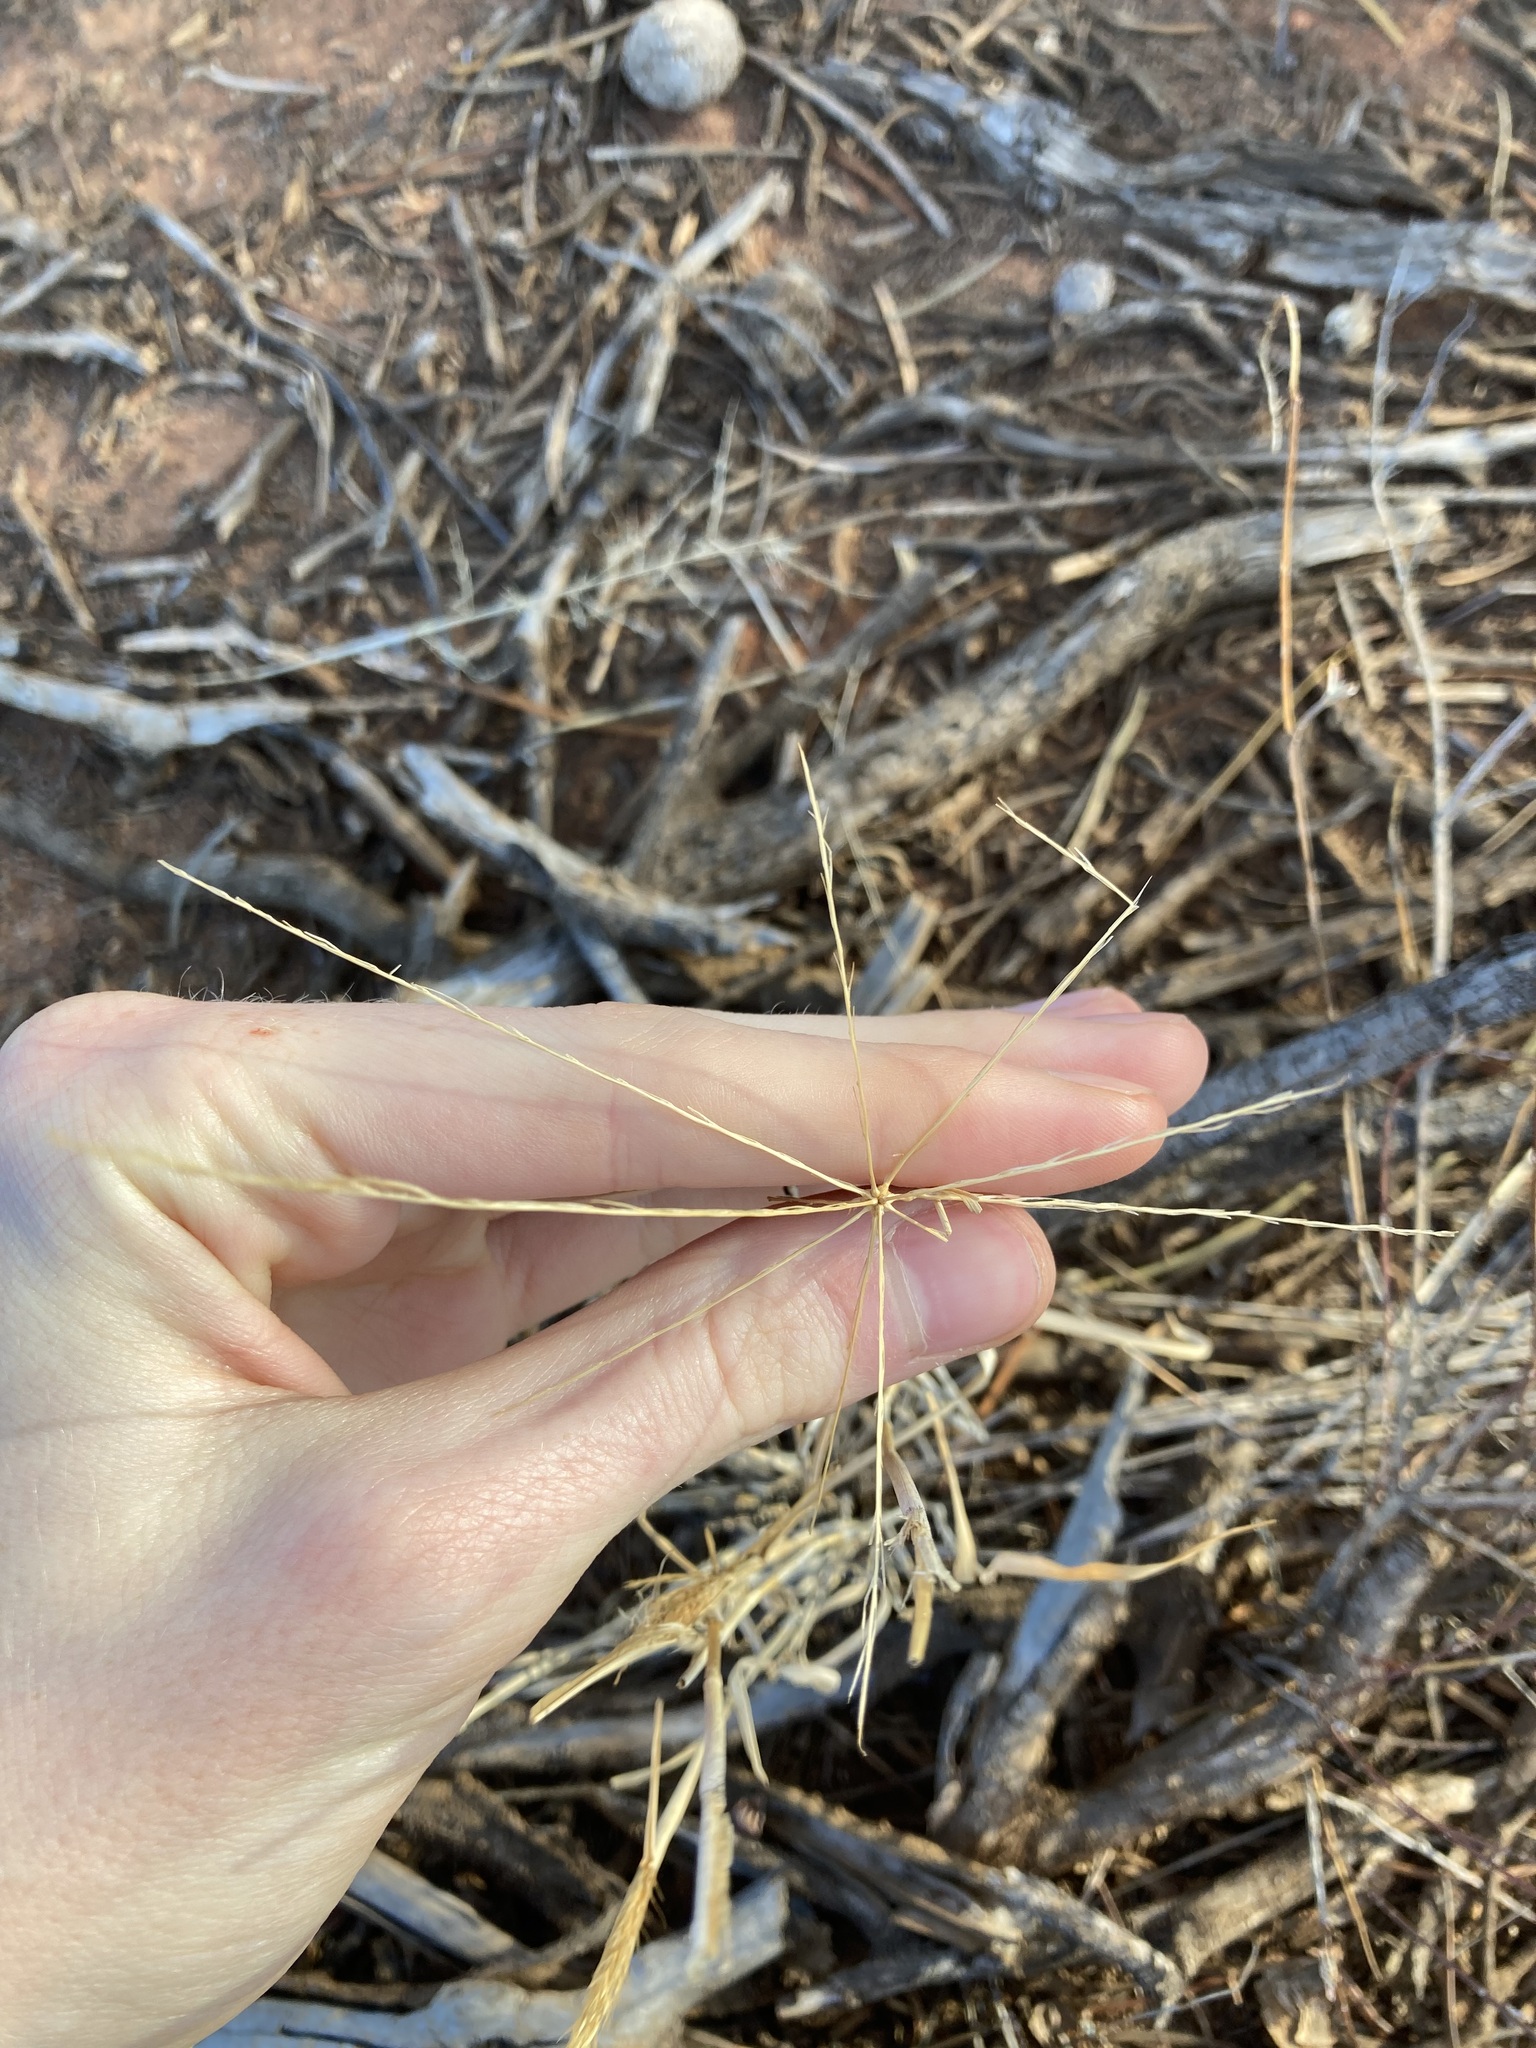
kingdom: Plantae
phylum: Tracheophyta
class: Liliopsida
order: Poales
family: Poaceae
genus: Enteropogon
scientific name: Enteropogon ramosus
